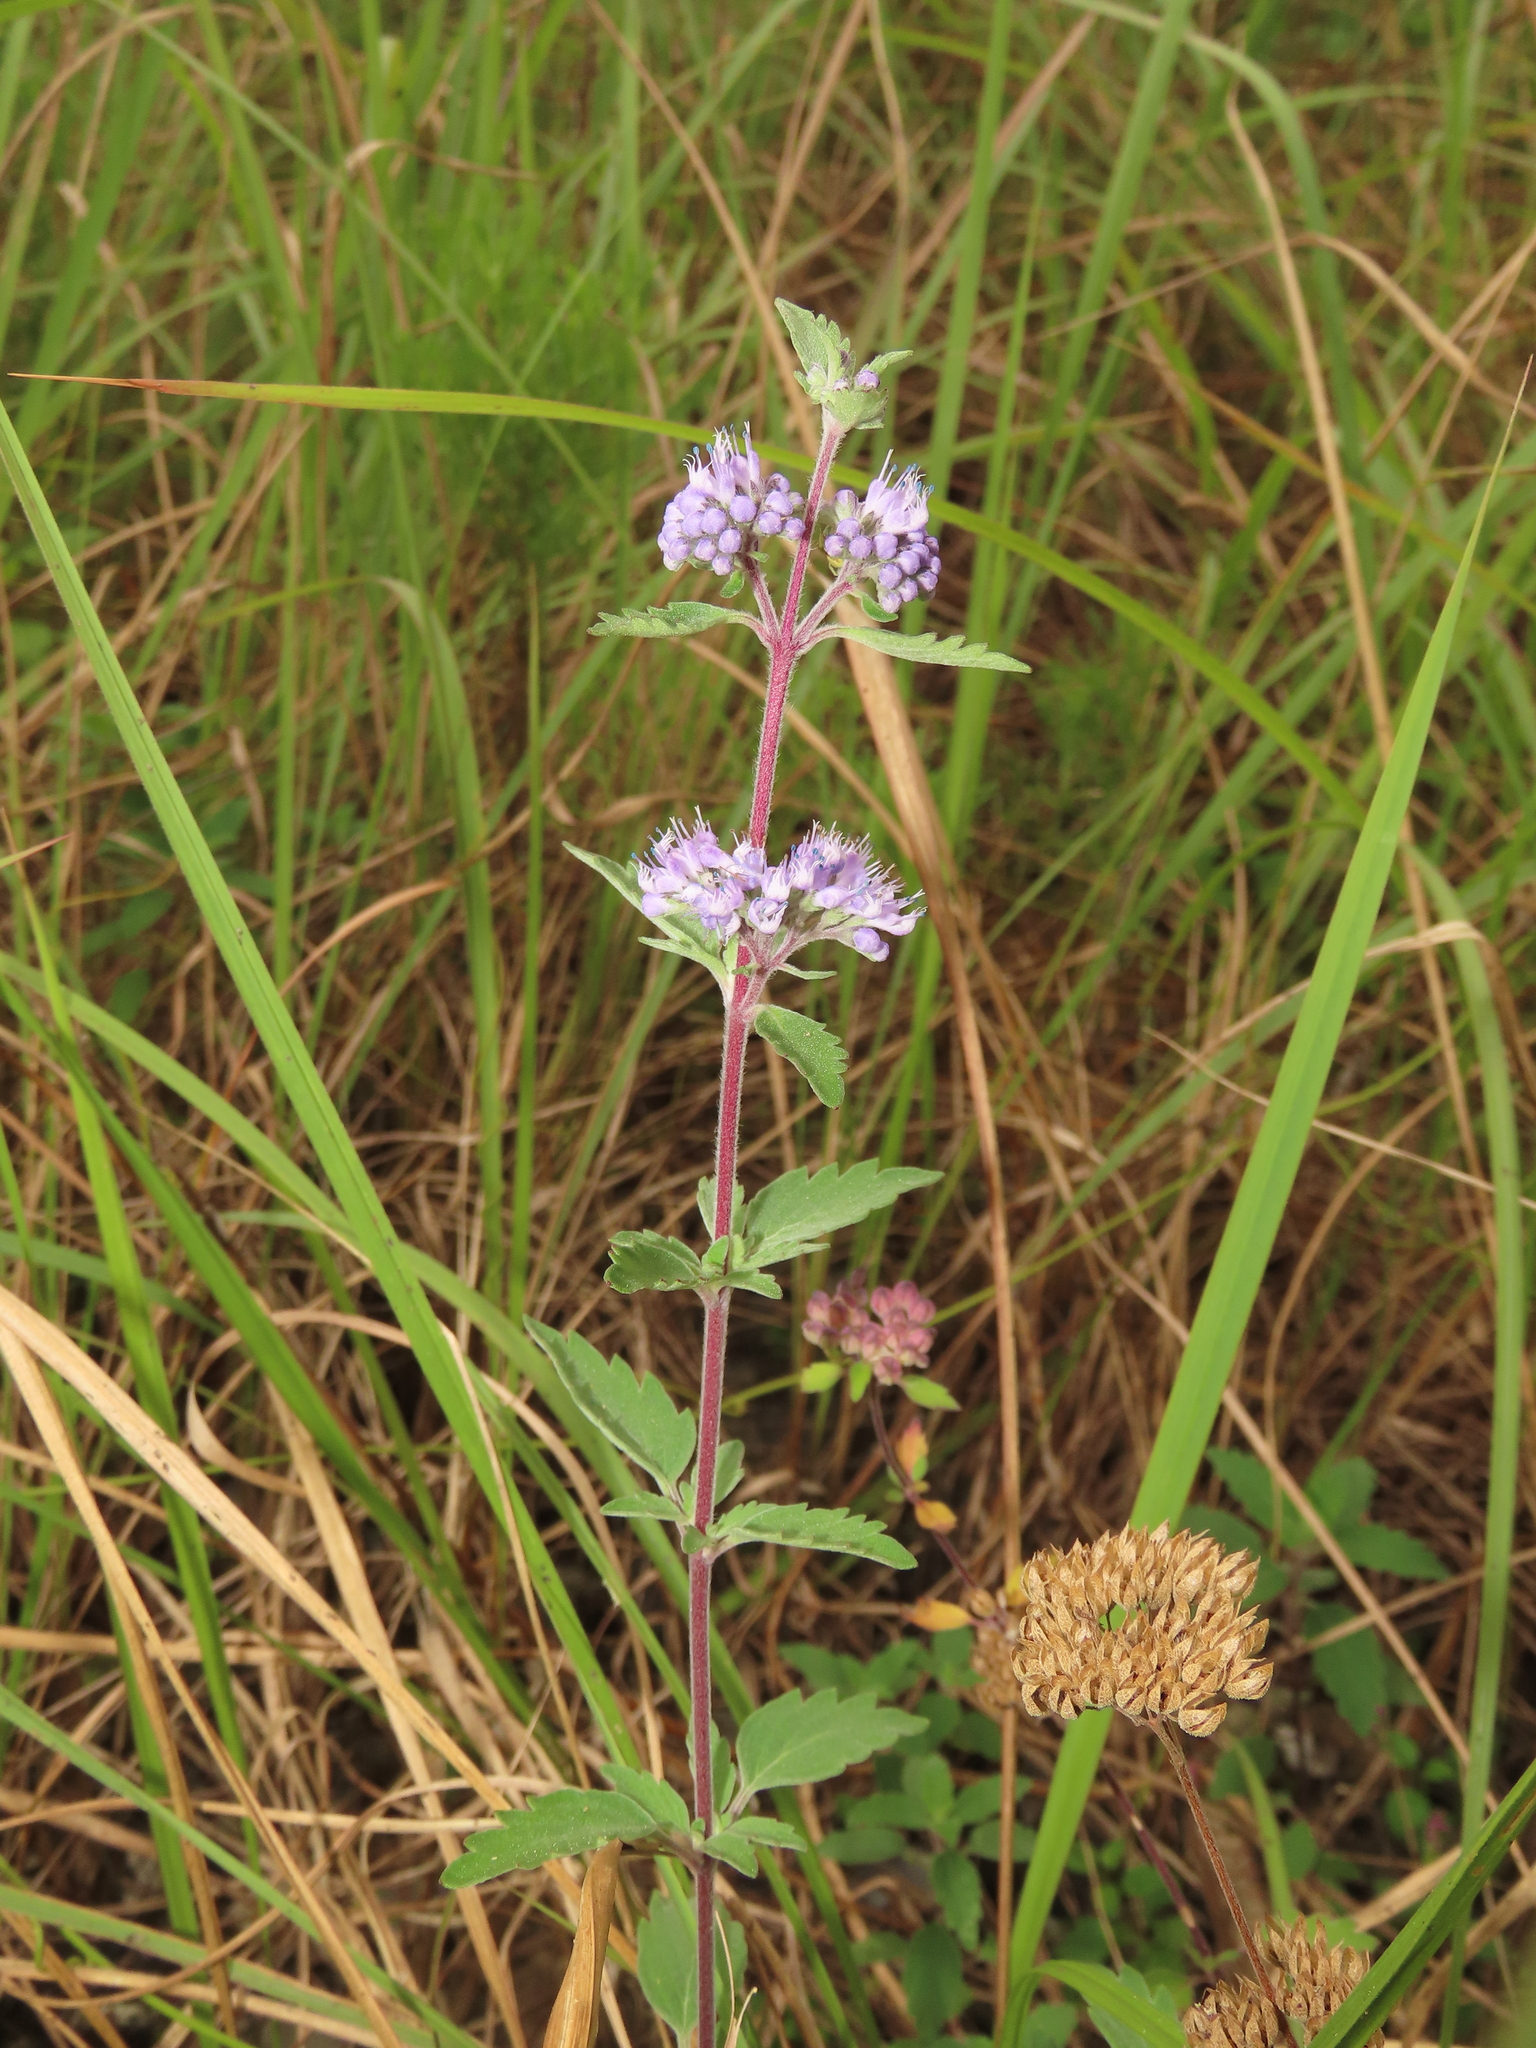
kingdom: Plantae
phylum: Tracheophyta
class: Magnoliopsida
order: Lamiales
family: Lamiaceae
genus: Caryopteris
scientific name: Caryopteris incana
